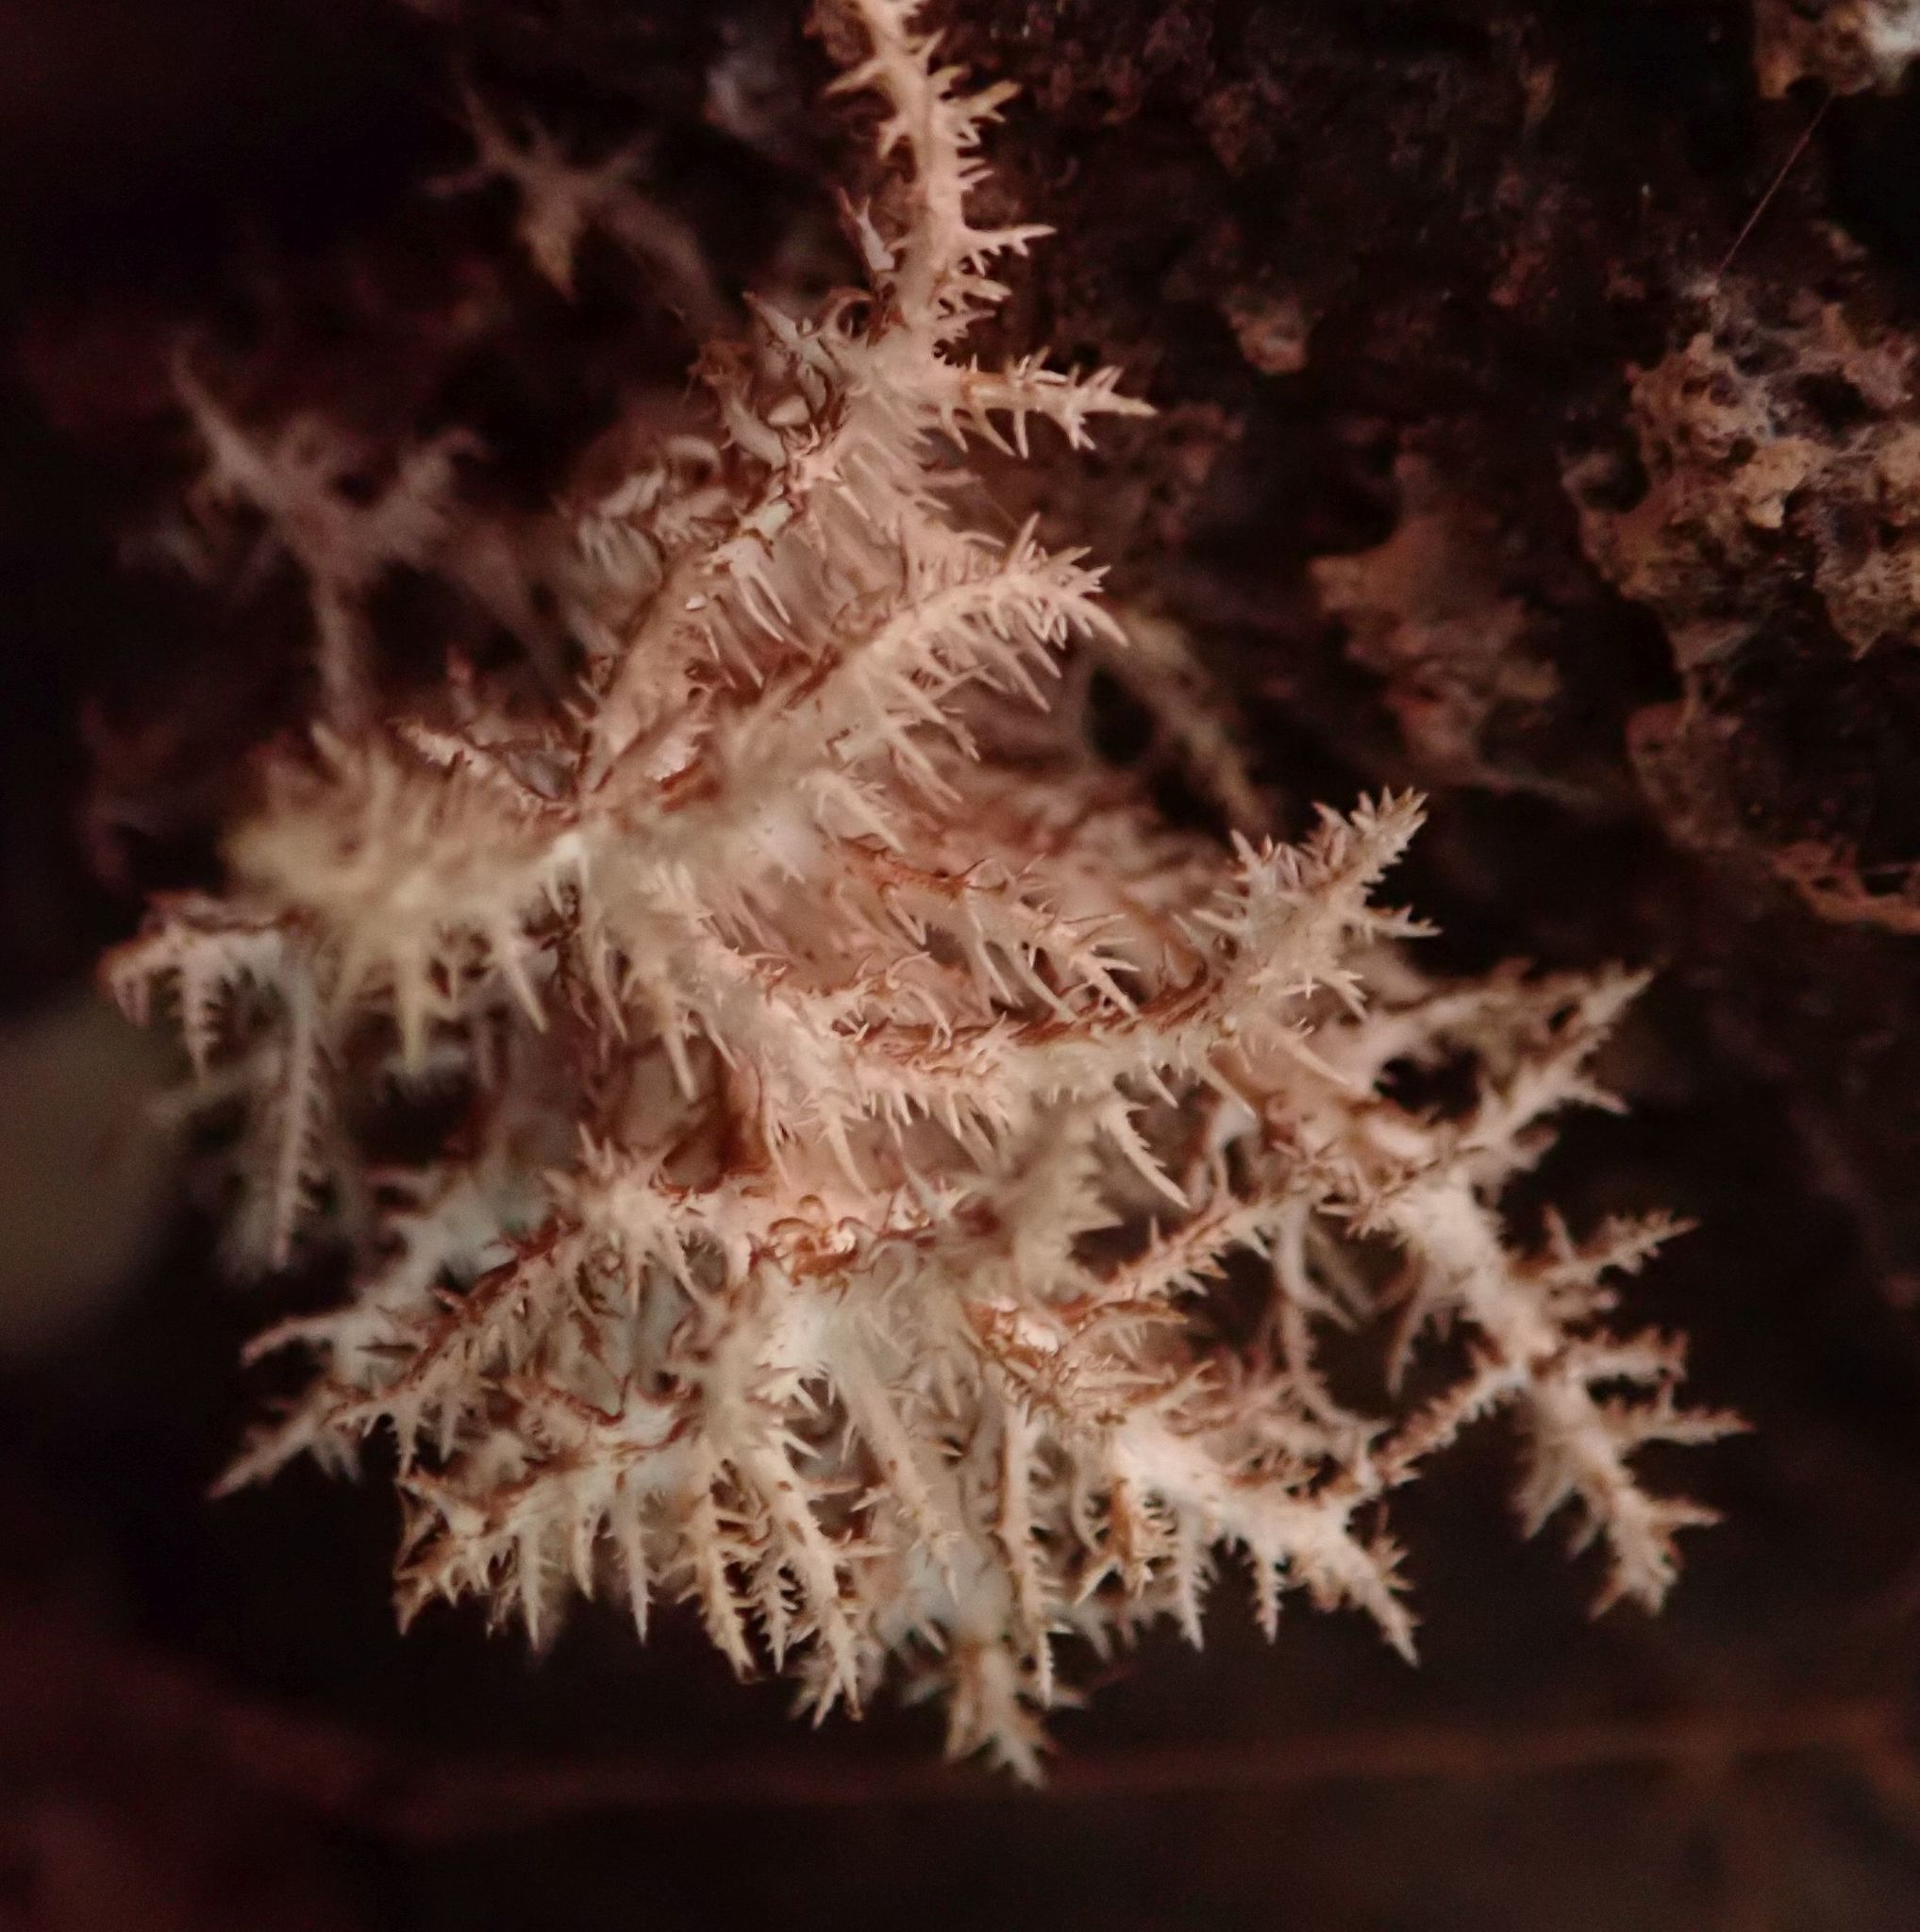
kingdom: Fungi
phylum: Basidiomycota
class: Agaricomycetes
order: Russulales
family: Hericiaceae
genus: Hericium
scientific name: Hericium novae-zealandiae
